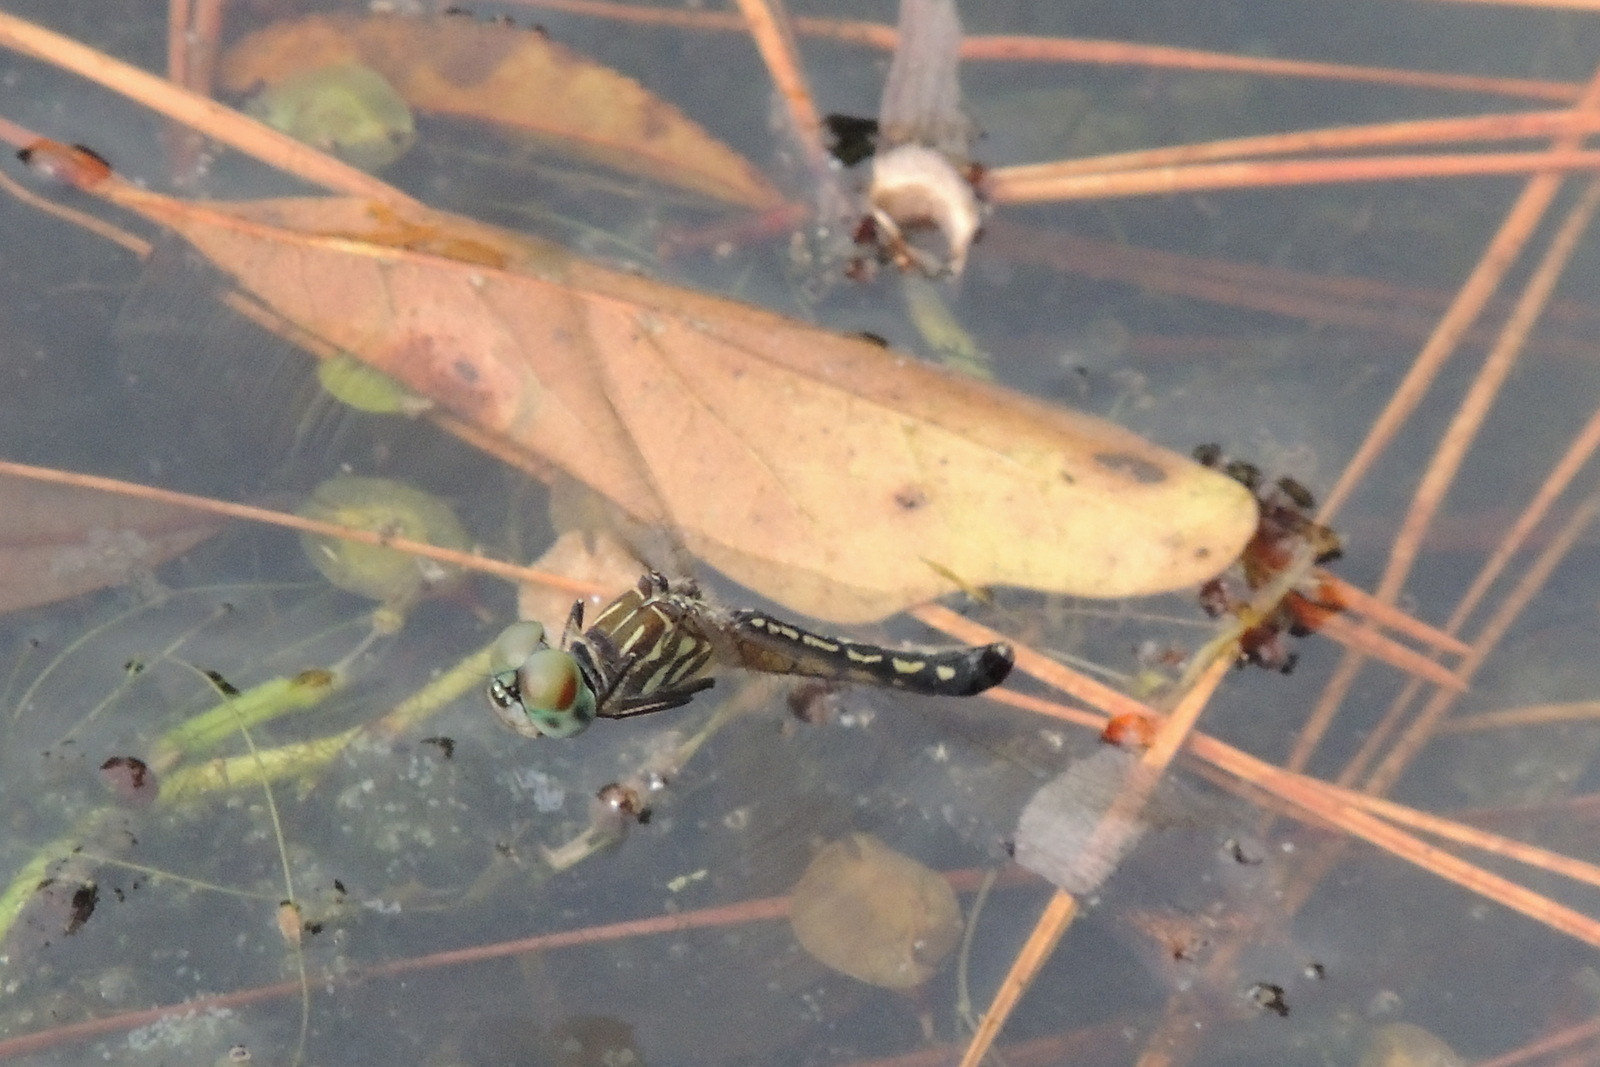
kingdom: Animalia
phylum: Arthropoda
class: Insecta
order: Odonata
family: Libellulidae
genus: Pachydiplax
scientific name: Pachydiplax longipennis
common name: Blue dasher
